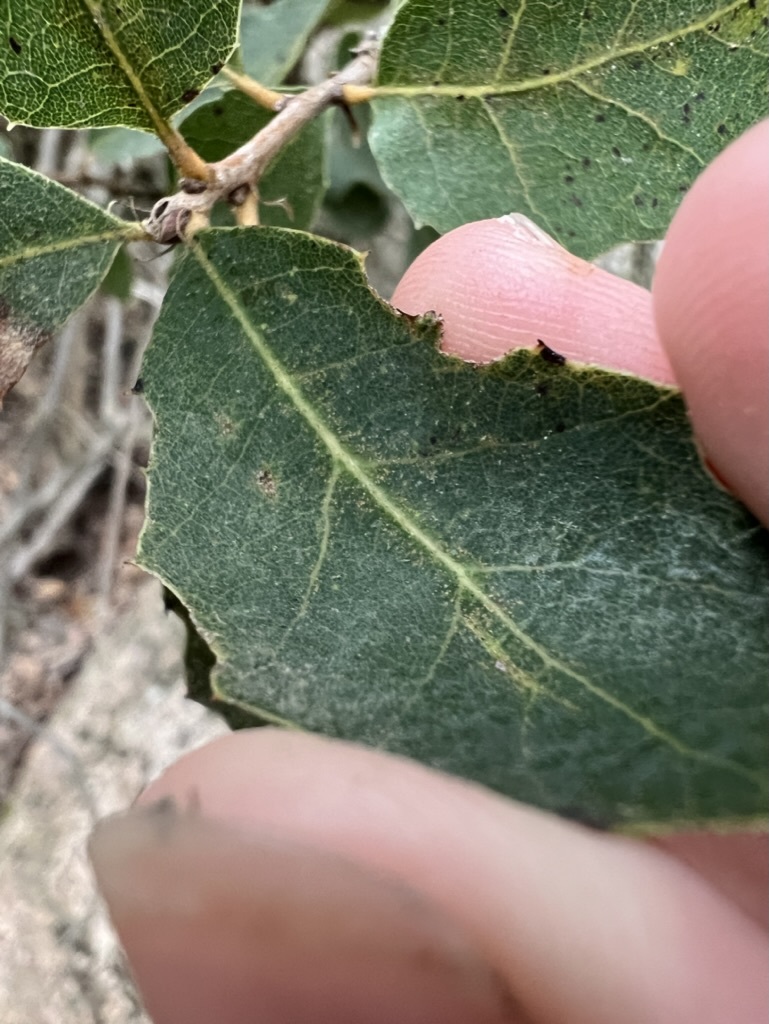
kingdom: Plantae
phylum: Tracheophyta
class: Magnoliopsida
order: Fagales
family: Fagaceae
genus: Quercus
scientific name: Quercus engelmannii
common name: Engelmann oak
